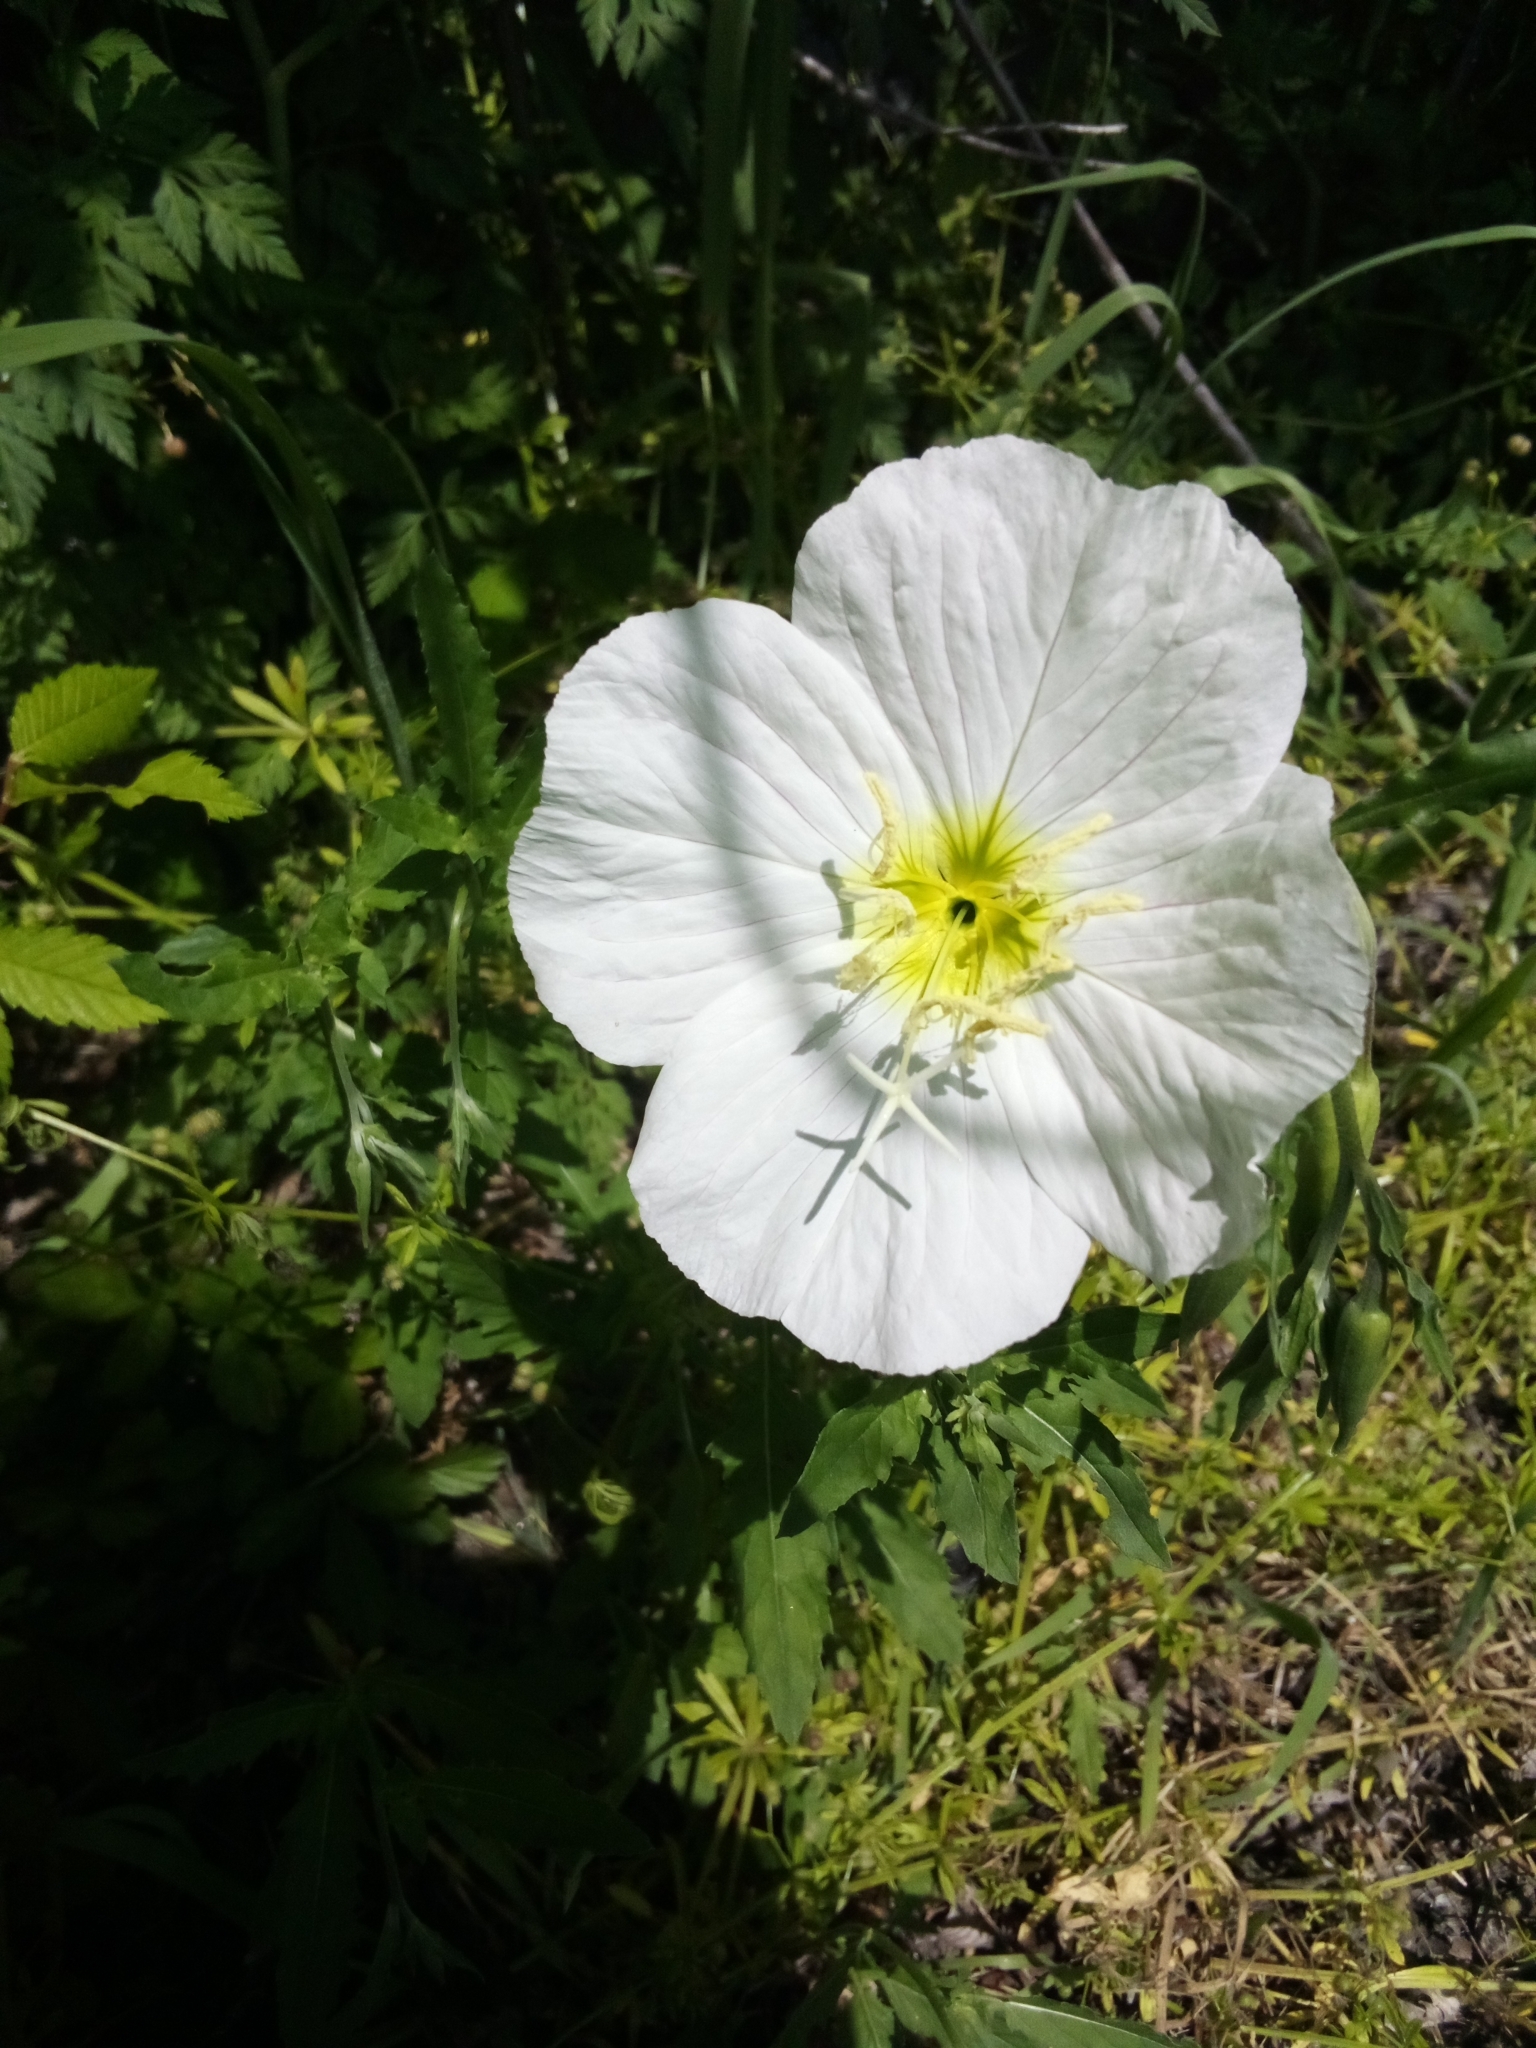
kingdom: Plantae
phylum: Tracheophyta
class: Magnoliopsida
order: Myrtales
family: Onagraceae
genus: Oenothera
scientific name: Oenothera speciosa
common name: White evening-primrose
